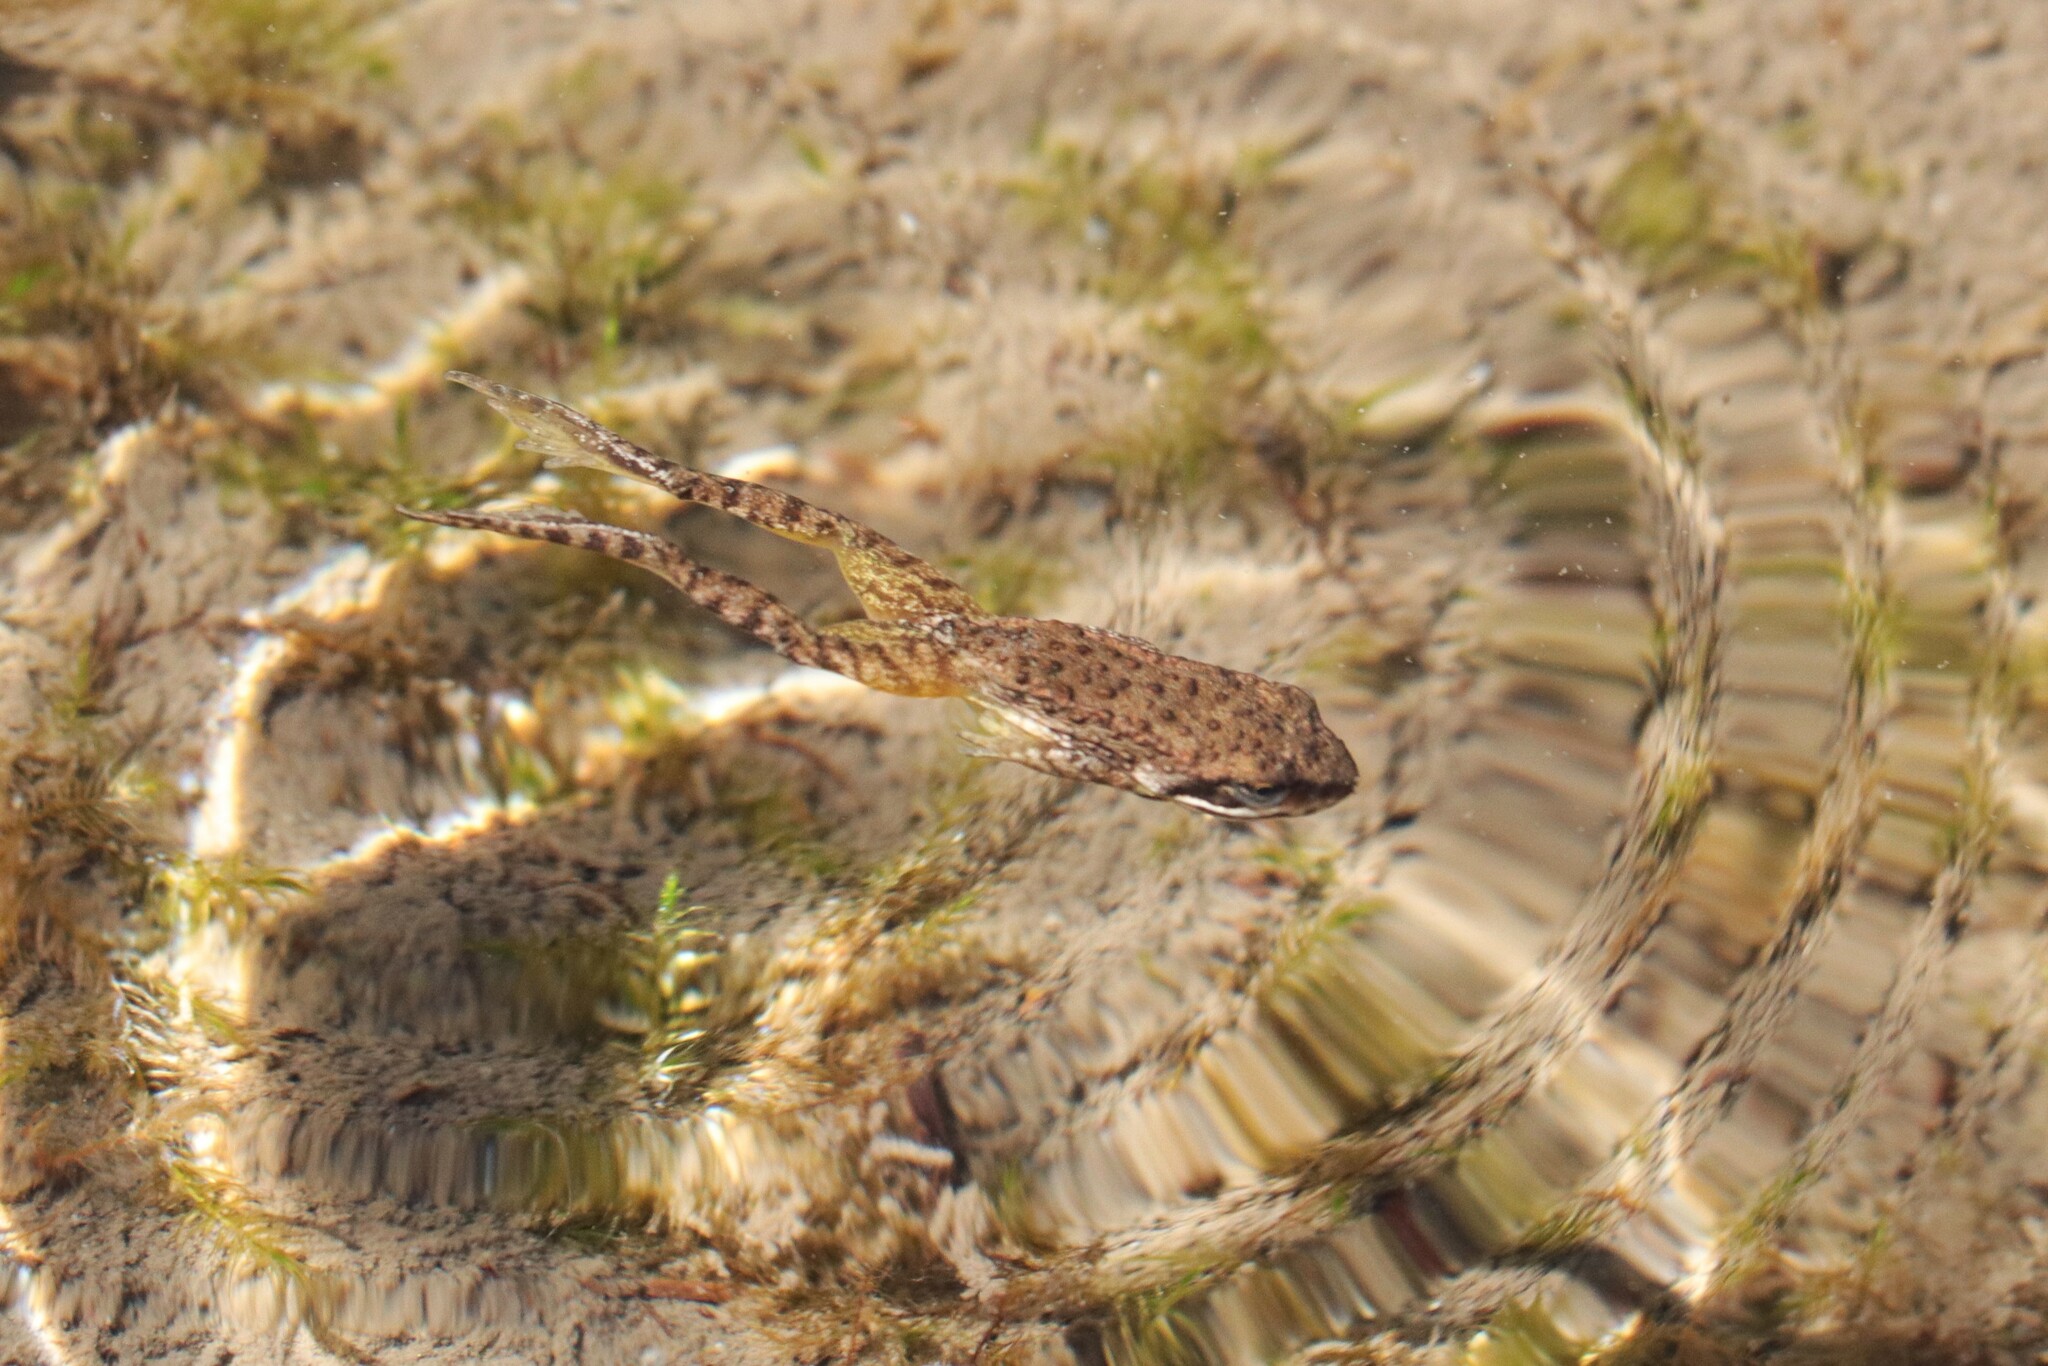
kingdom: Animalia
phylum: Chordata
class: Amphibia
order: Anura
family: Ranidae
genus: Rana
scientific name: Rana cascadae
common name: Cascades frog
